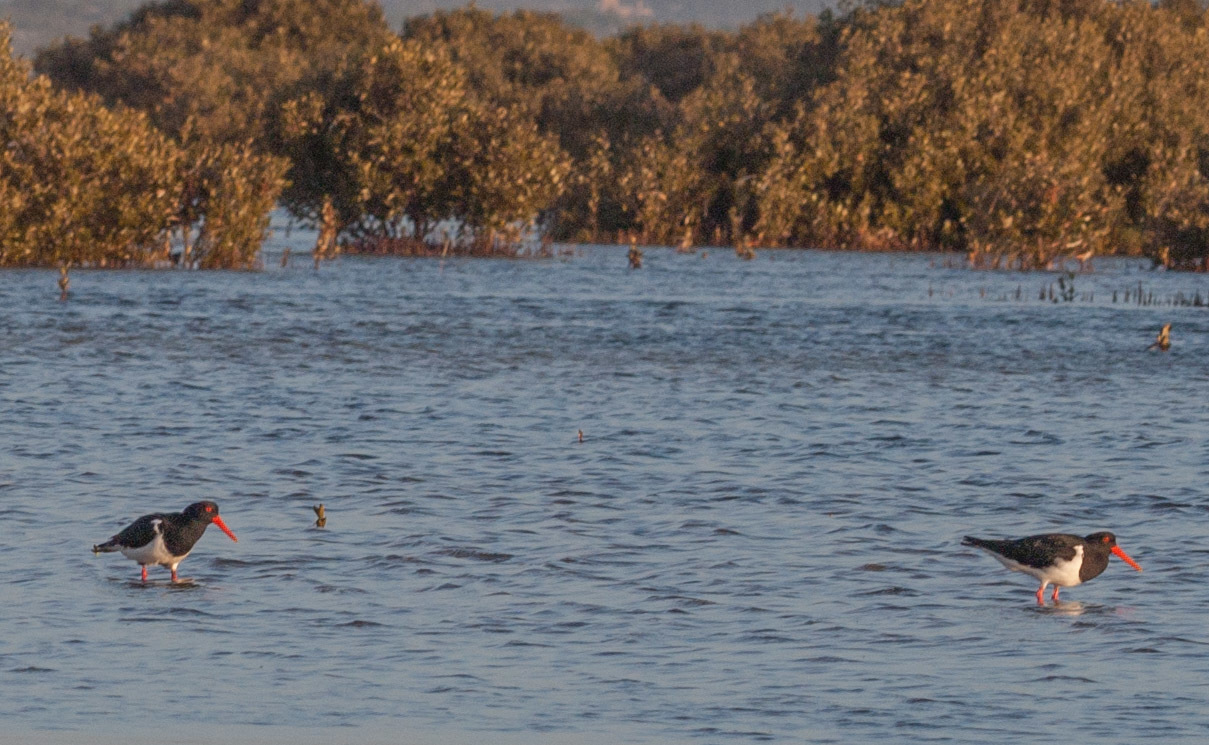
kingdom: Animalia
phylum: Chordata
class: Aves
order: Charadriiformes
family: Haematopodidae
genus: Haematopus
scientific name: Haematopus longirostris
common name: Pied oystercatcher
